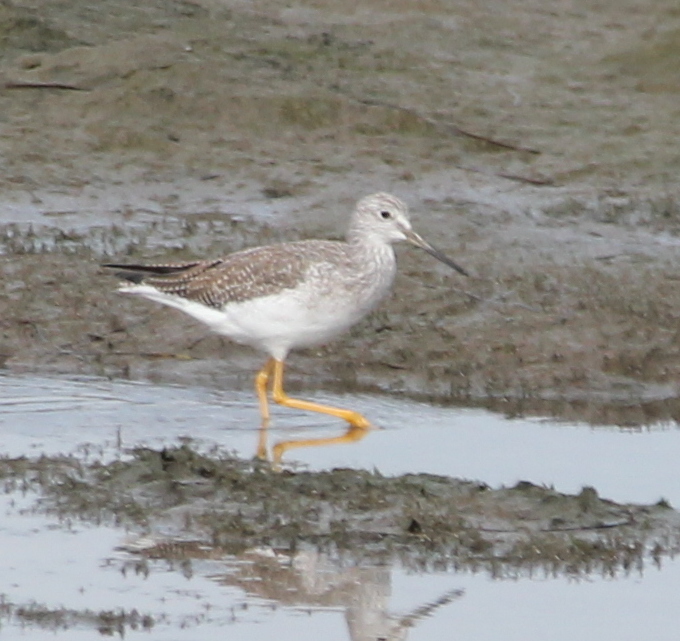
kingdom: Animalia
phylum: Chordata
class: Aves
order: Charadriiformes
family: Scolopacidae
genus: Tringa
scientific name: Tringa melanoleuca
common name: Greater yellowlegs
